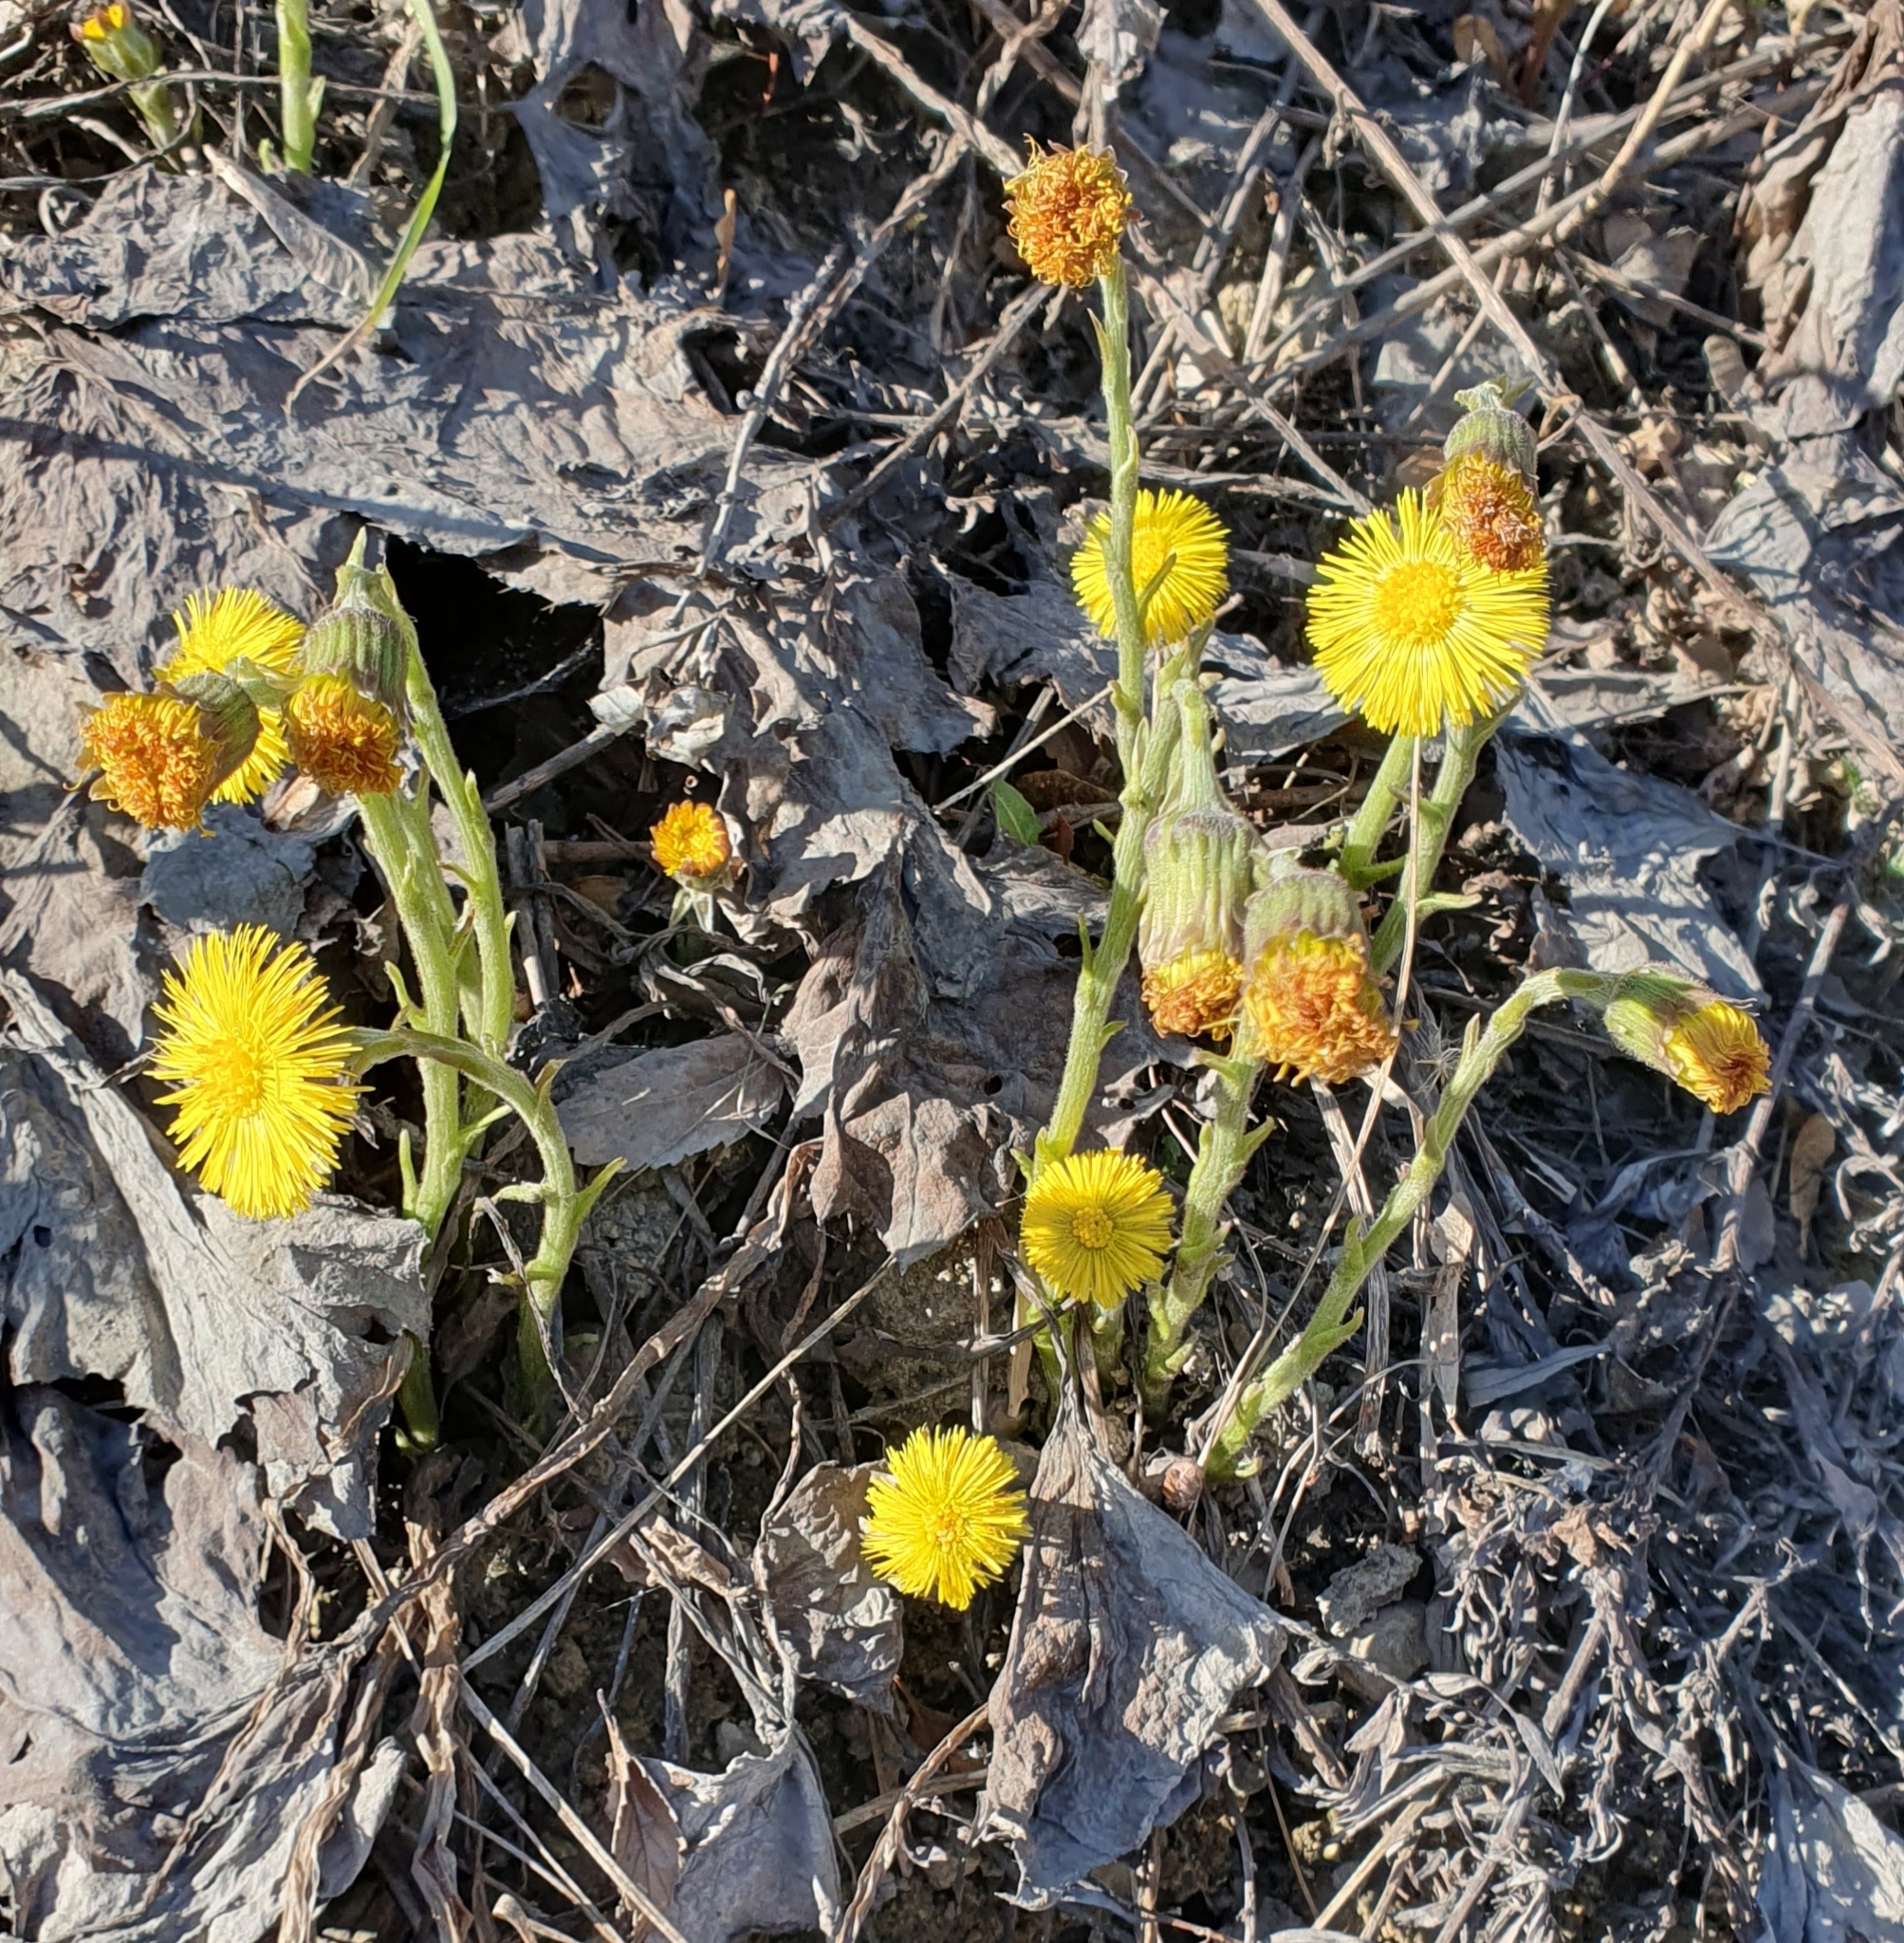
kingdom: Plantae
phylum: Tracheophyta
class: Magnoliopsida
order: Asterales
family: Asteraceae
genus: Tussilago
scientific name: Tussilago farfara
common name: Coltsfoot
